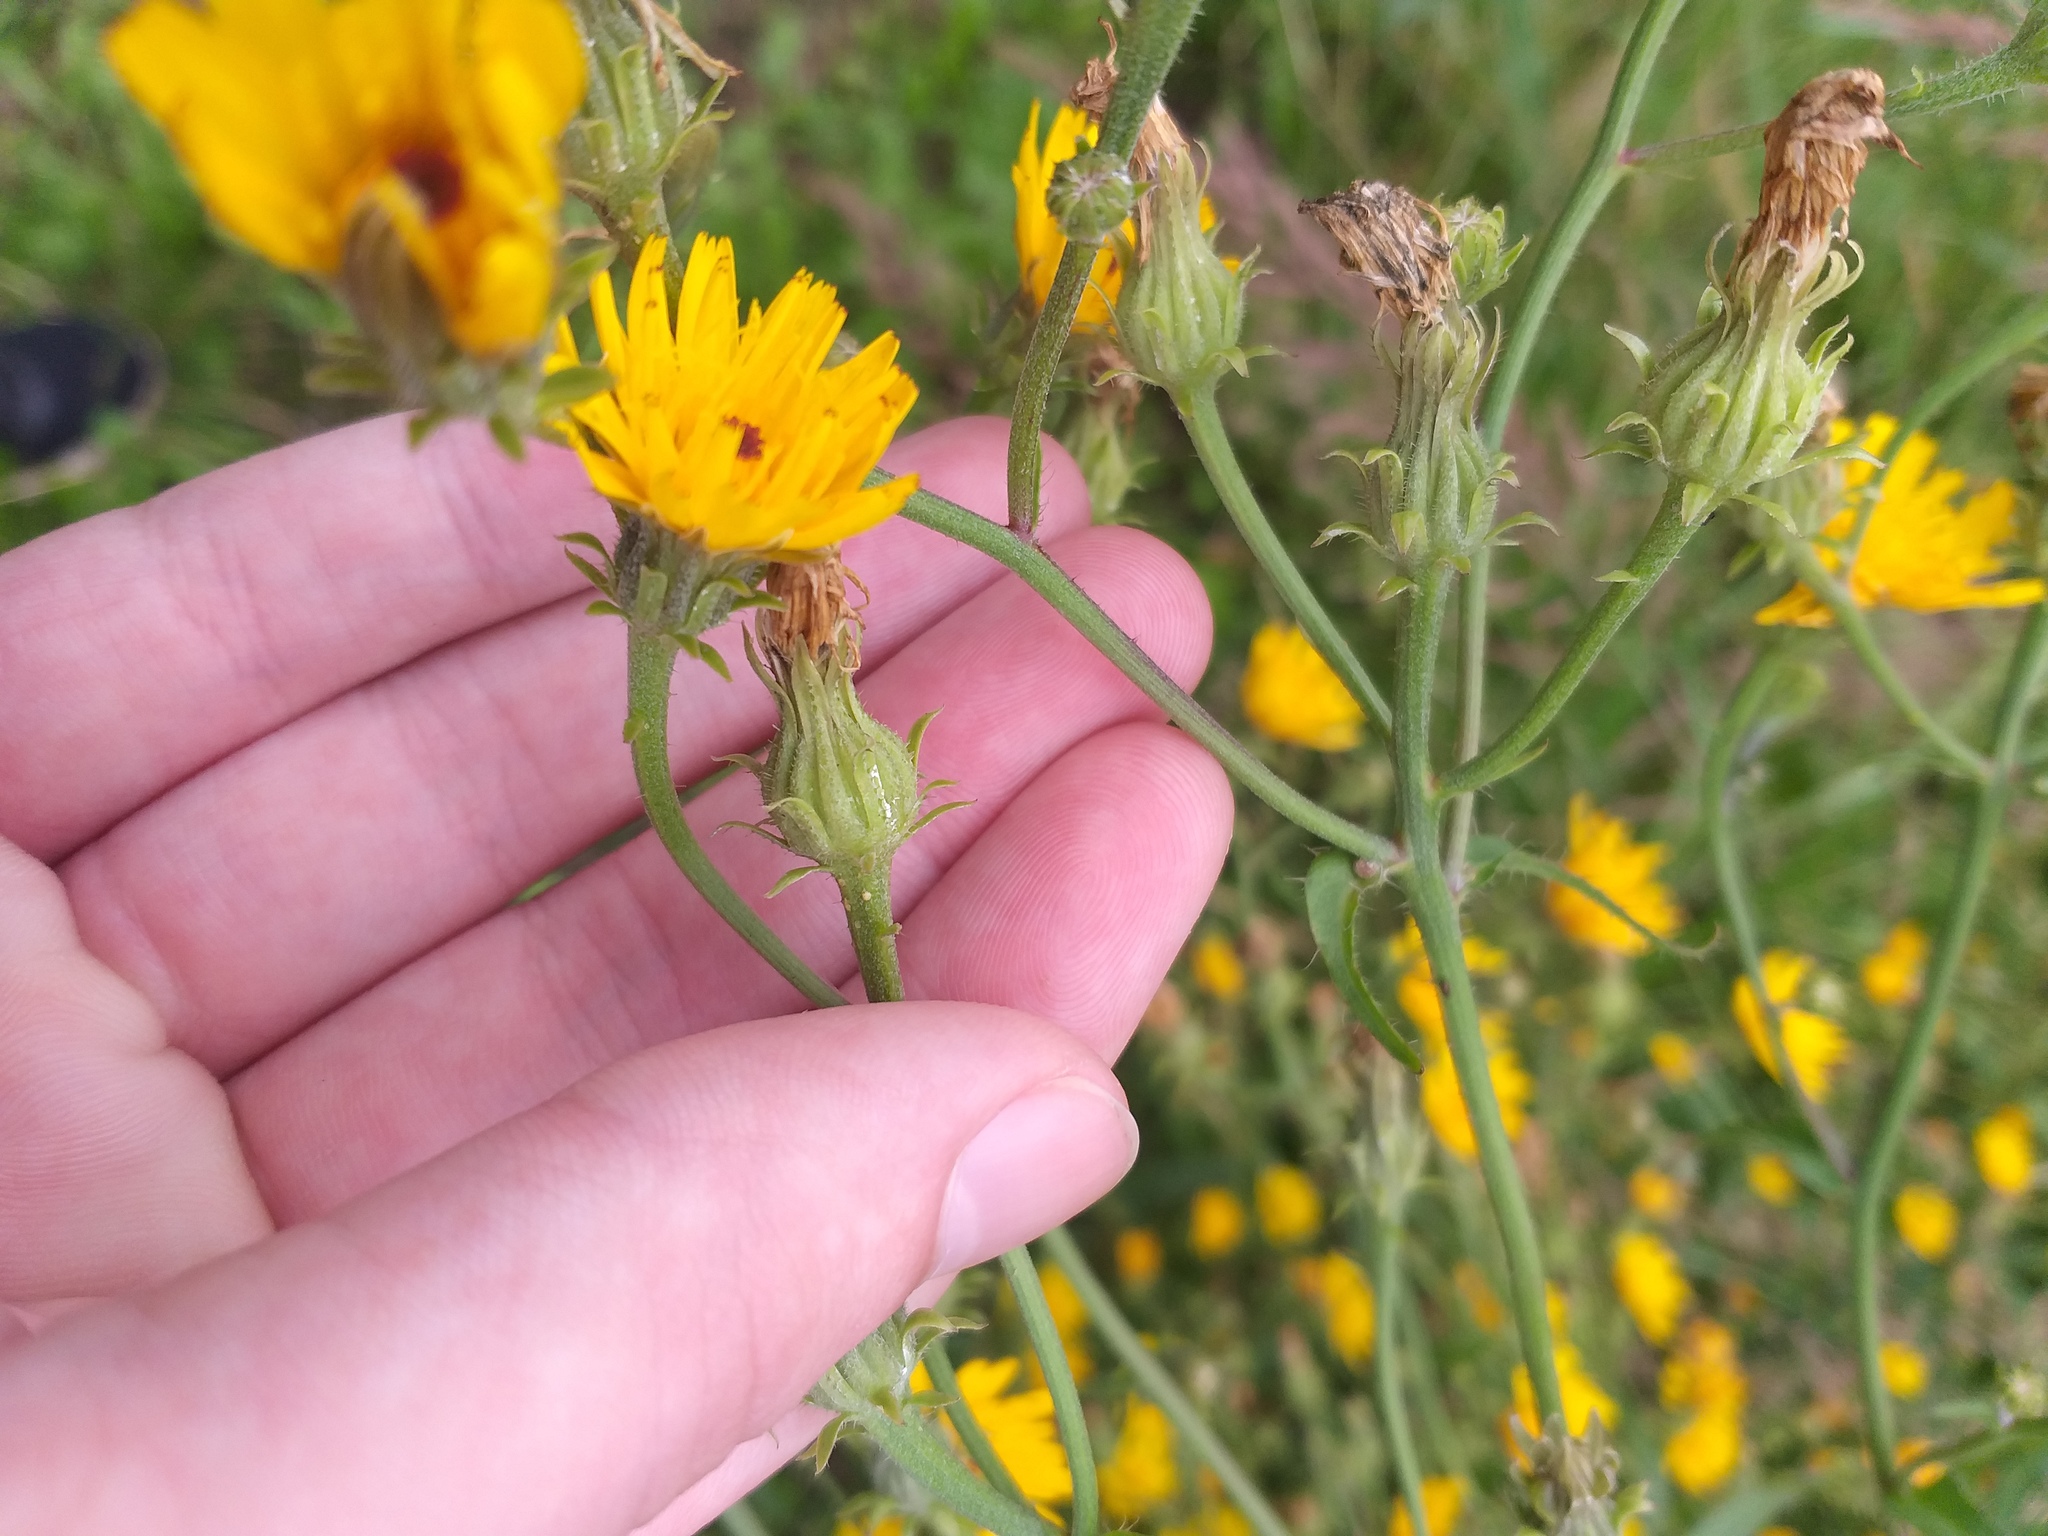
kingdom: Plantae
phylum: Tracheophyta
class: Magnoliopsida
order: Asterales
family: Asteraceae
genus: Picris
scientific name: Picris hieracioides
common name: Hawkweed oxtongue
